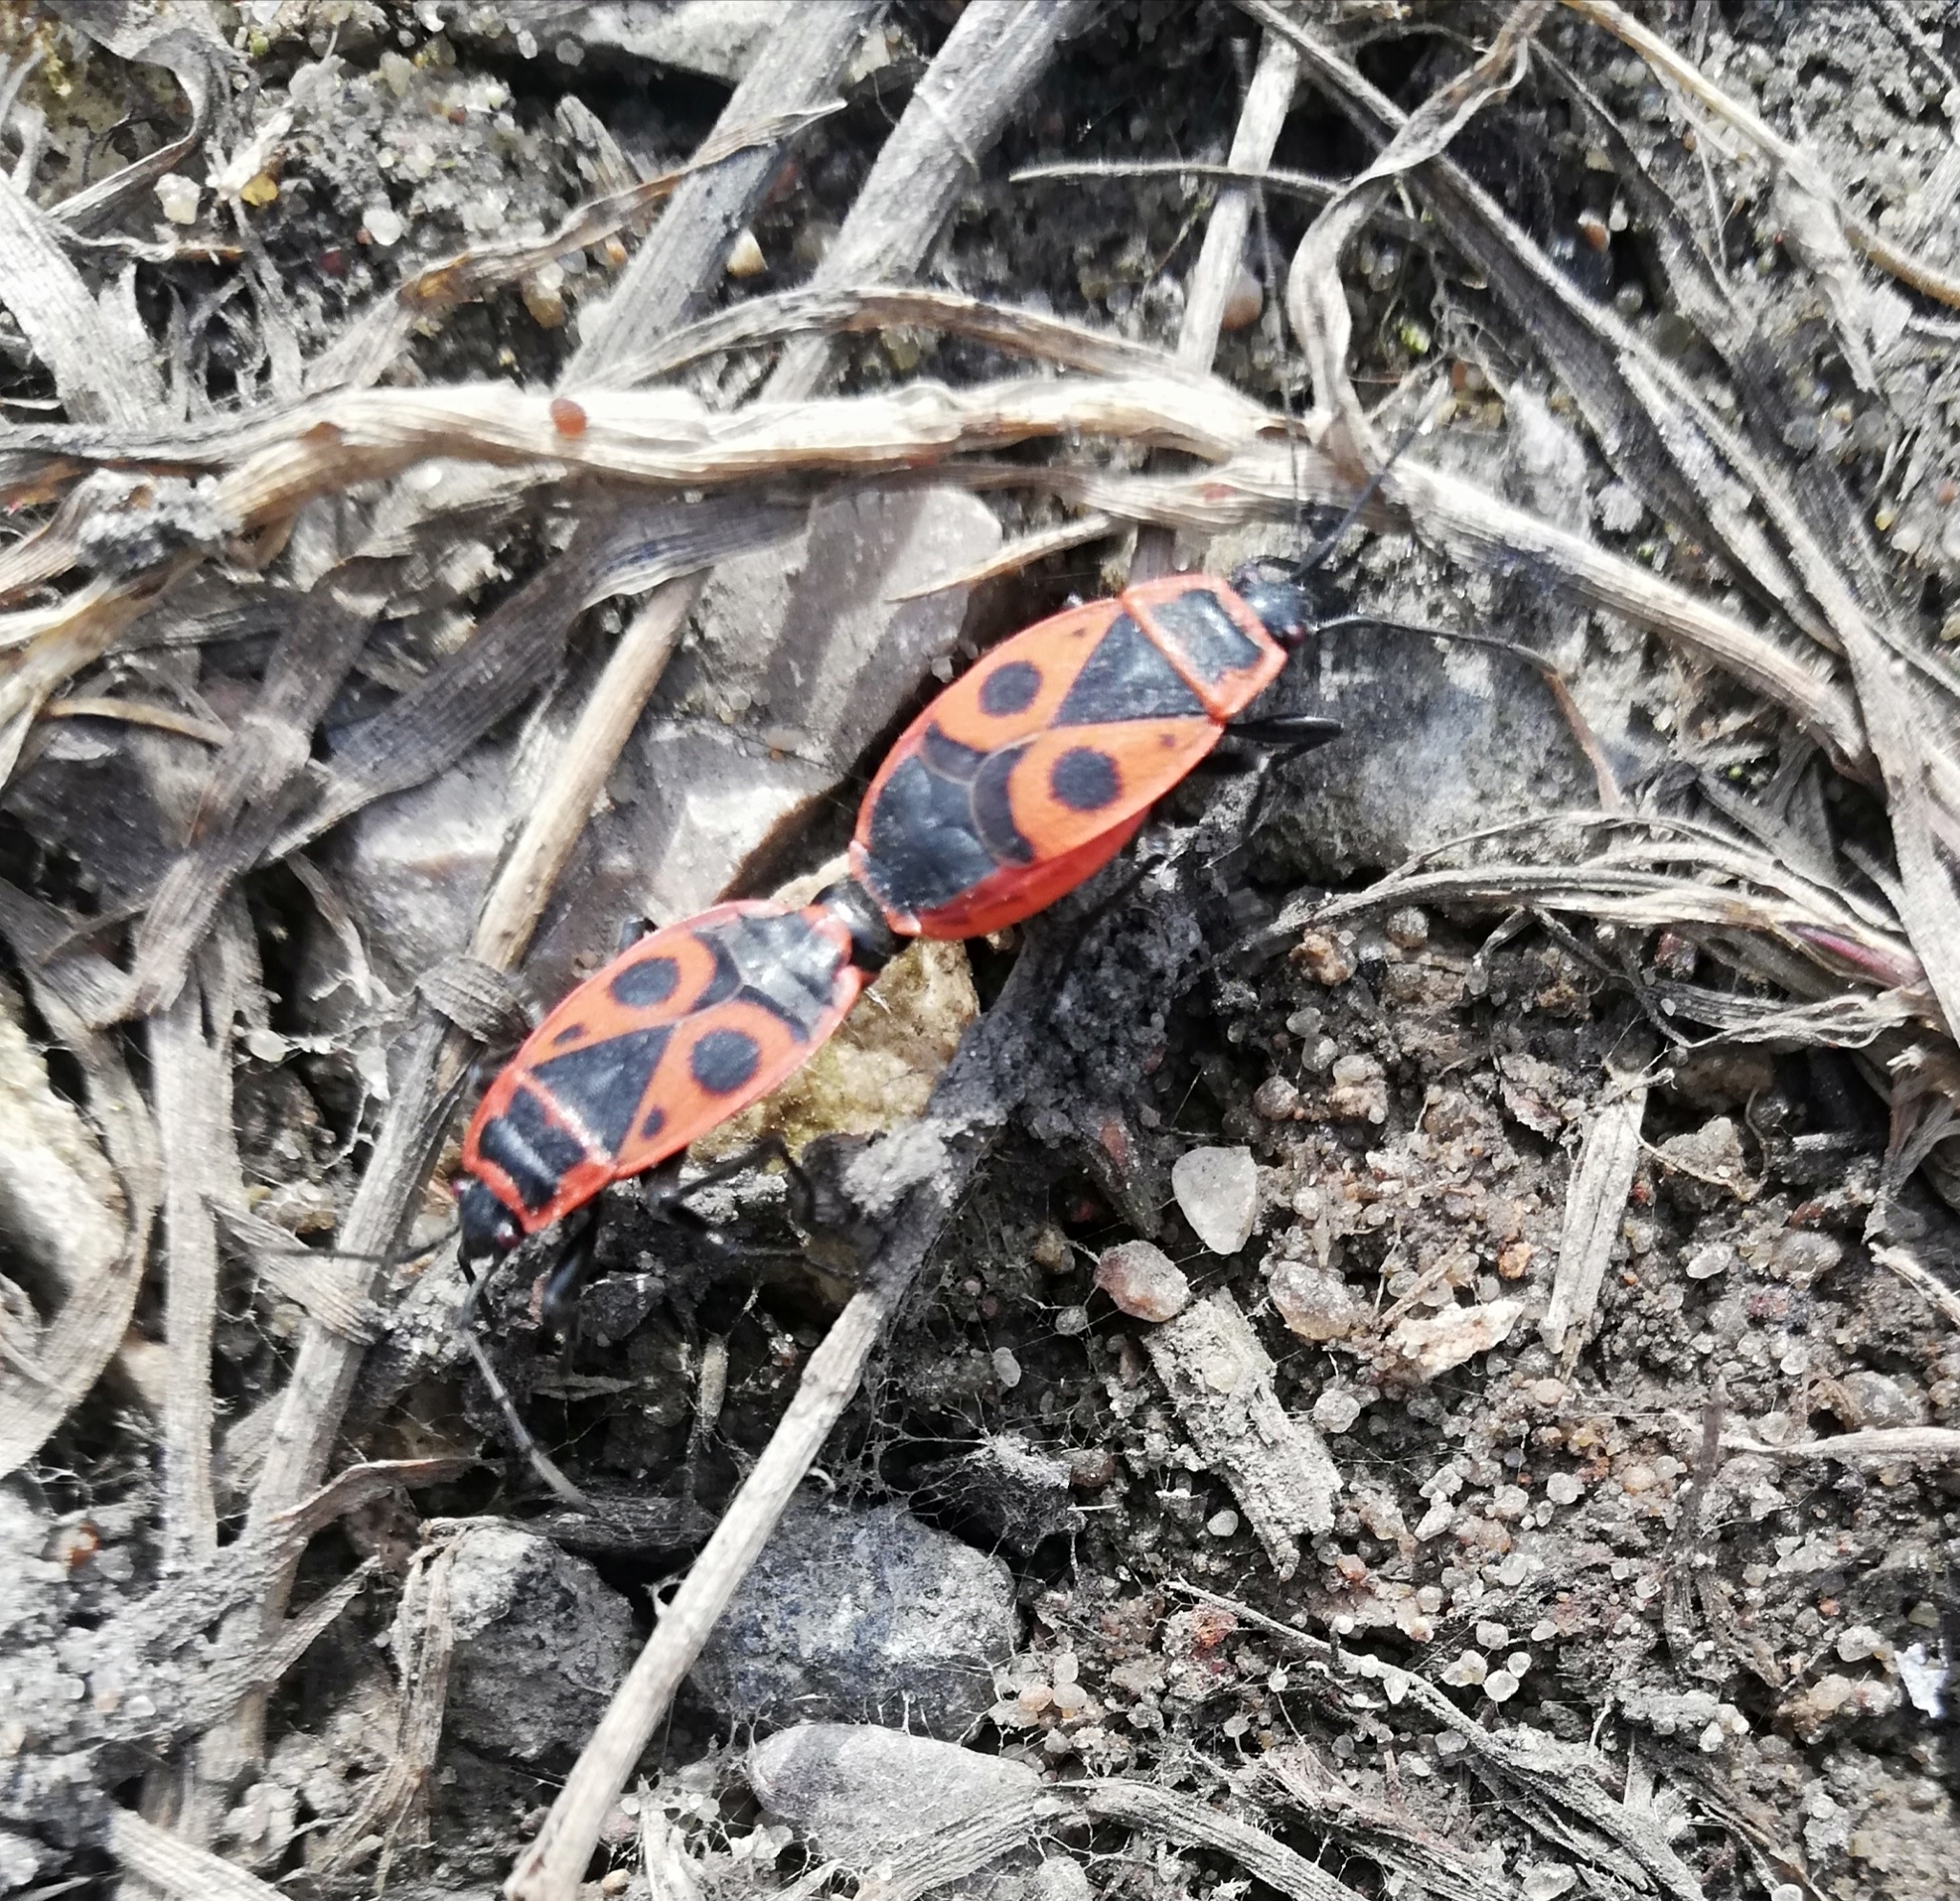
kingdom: Animalia
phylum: Arthropoda
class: Insecta
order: Hemiptera
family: Pyrrhocoridae
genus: Pyrrhocoris
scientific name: Pyrrhocoris apterus
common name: Firebug
